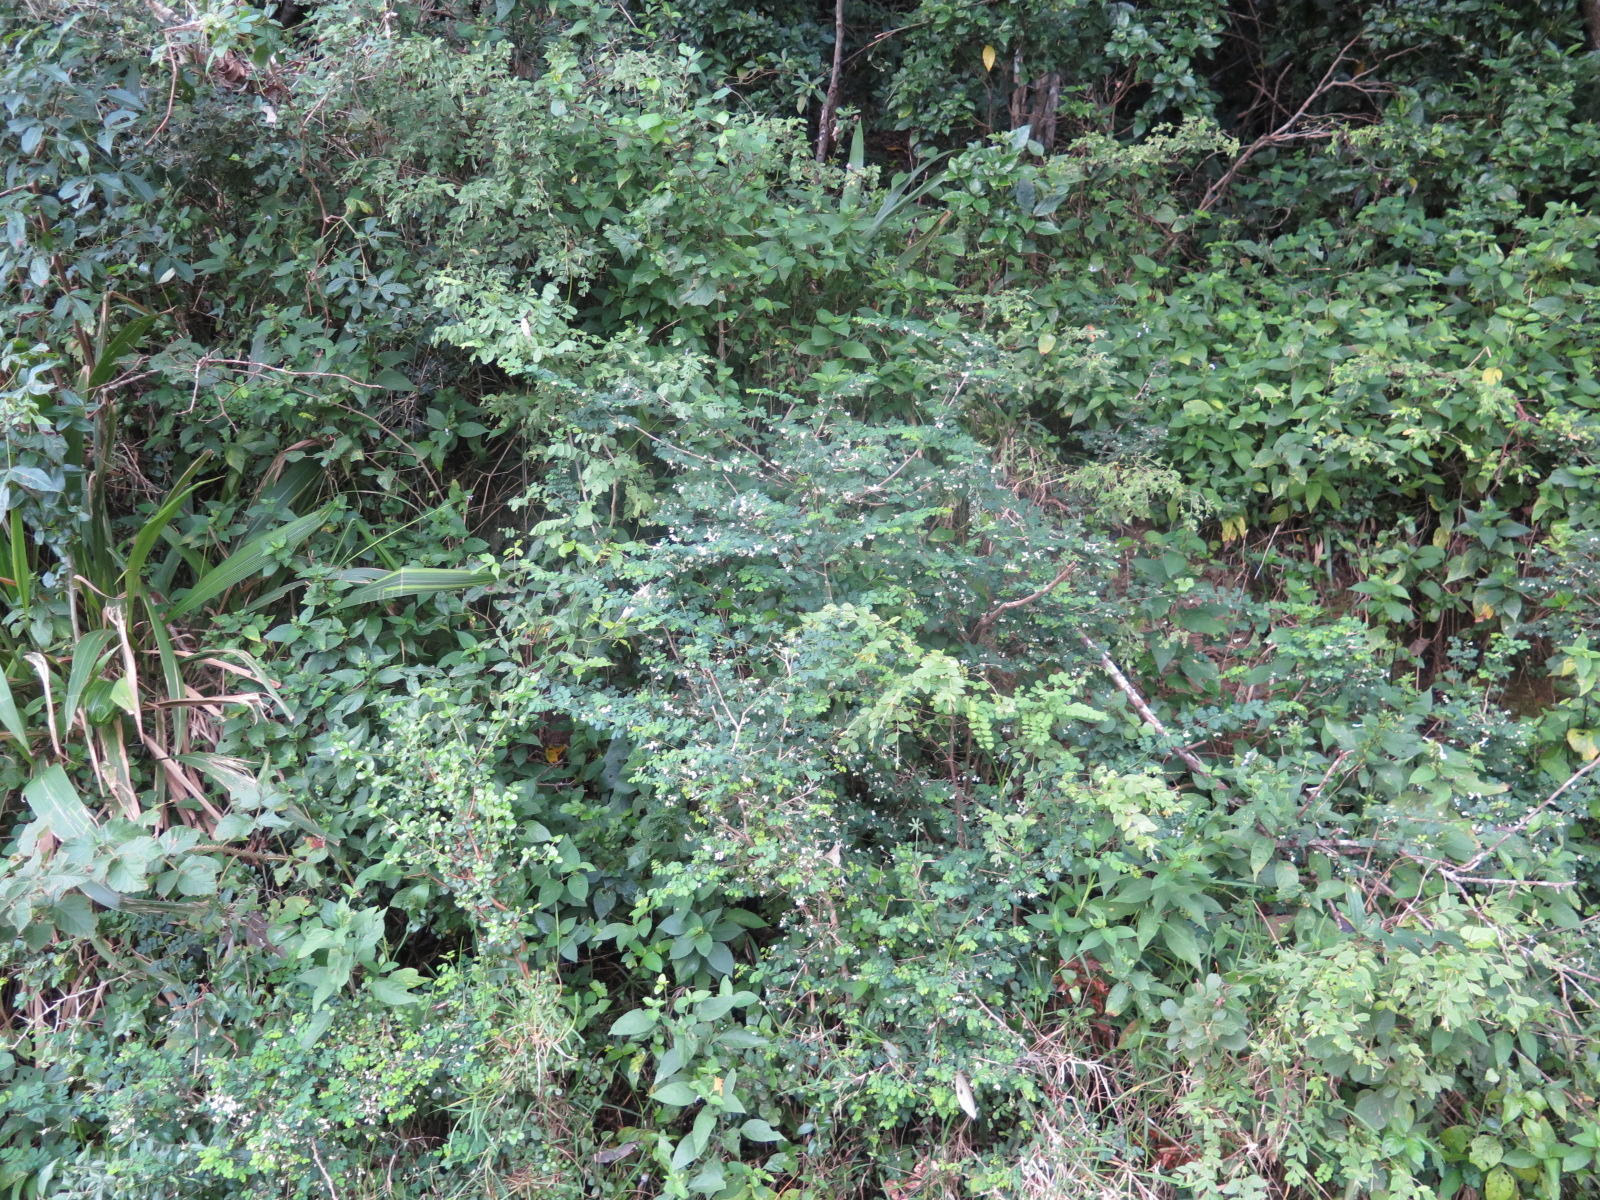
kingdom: Plantae
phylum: Tracheophyta
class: Magnoliopsida
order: Fabales
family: Fabaceae
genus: Indigofera
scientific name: Indigofera natalensis
